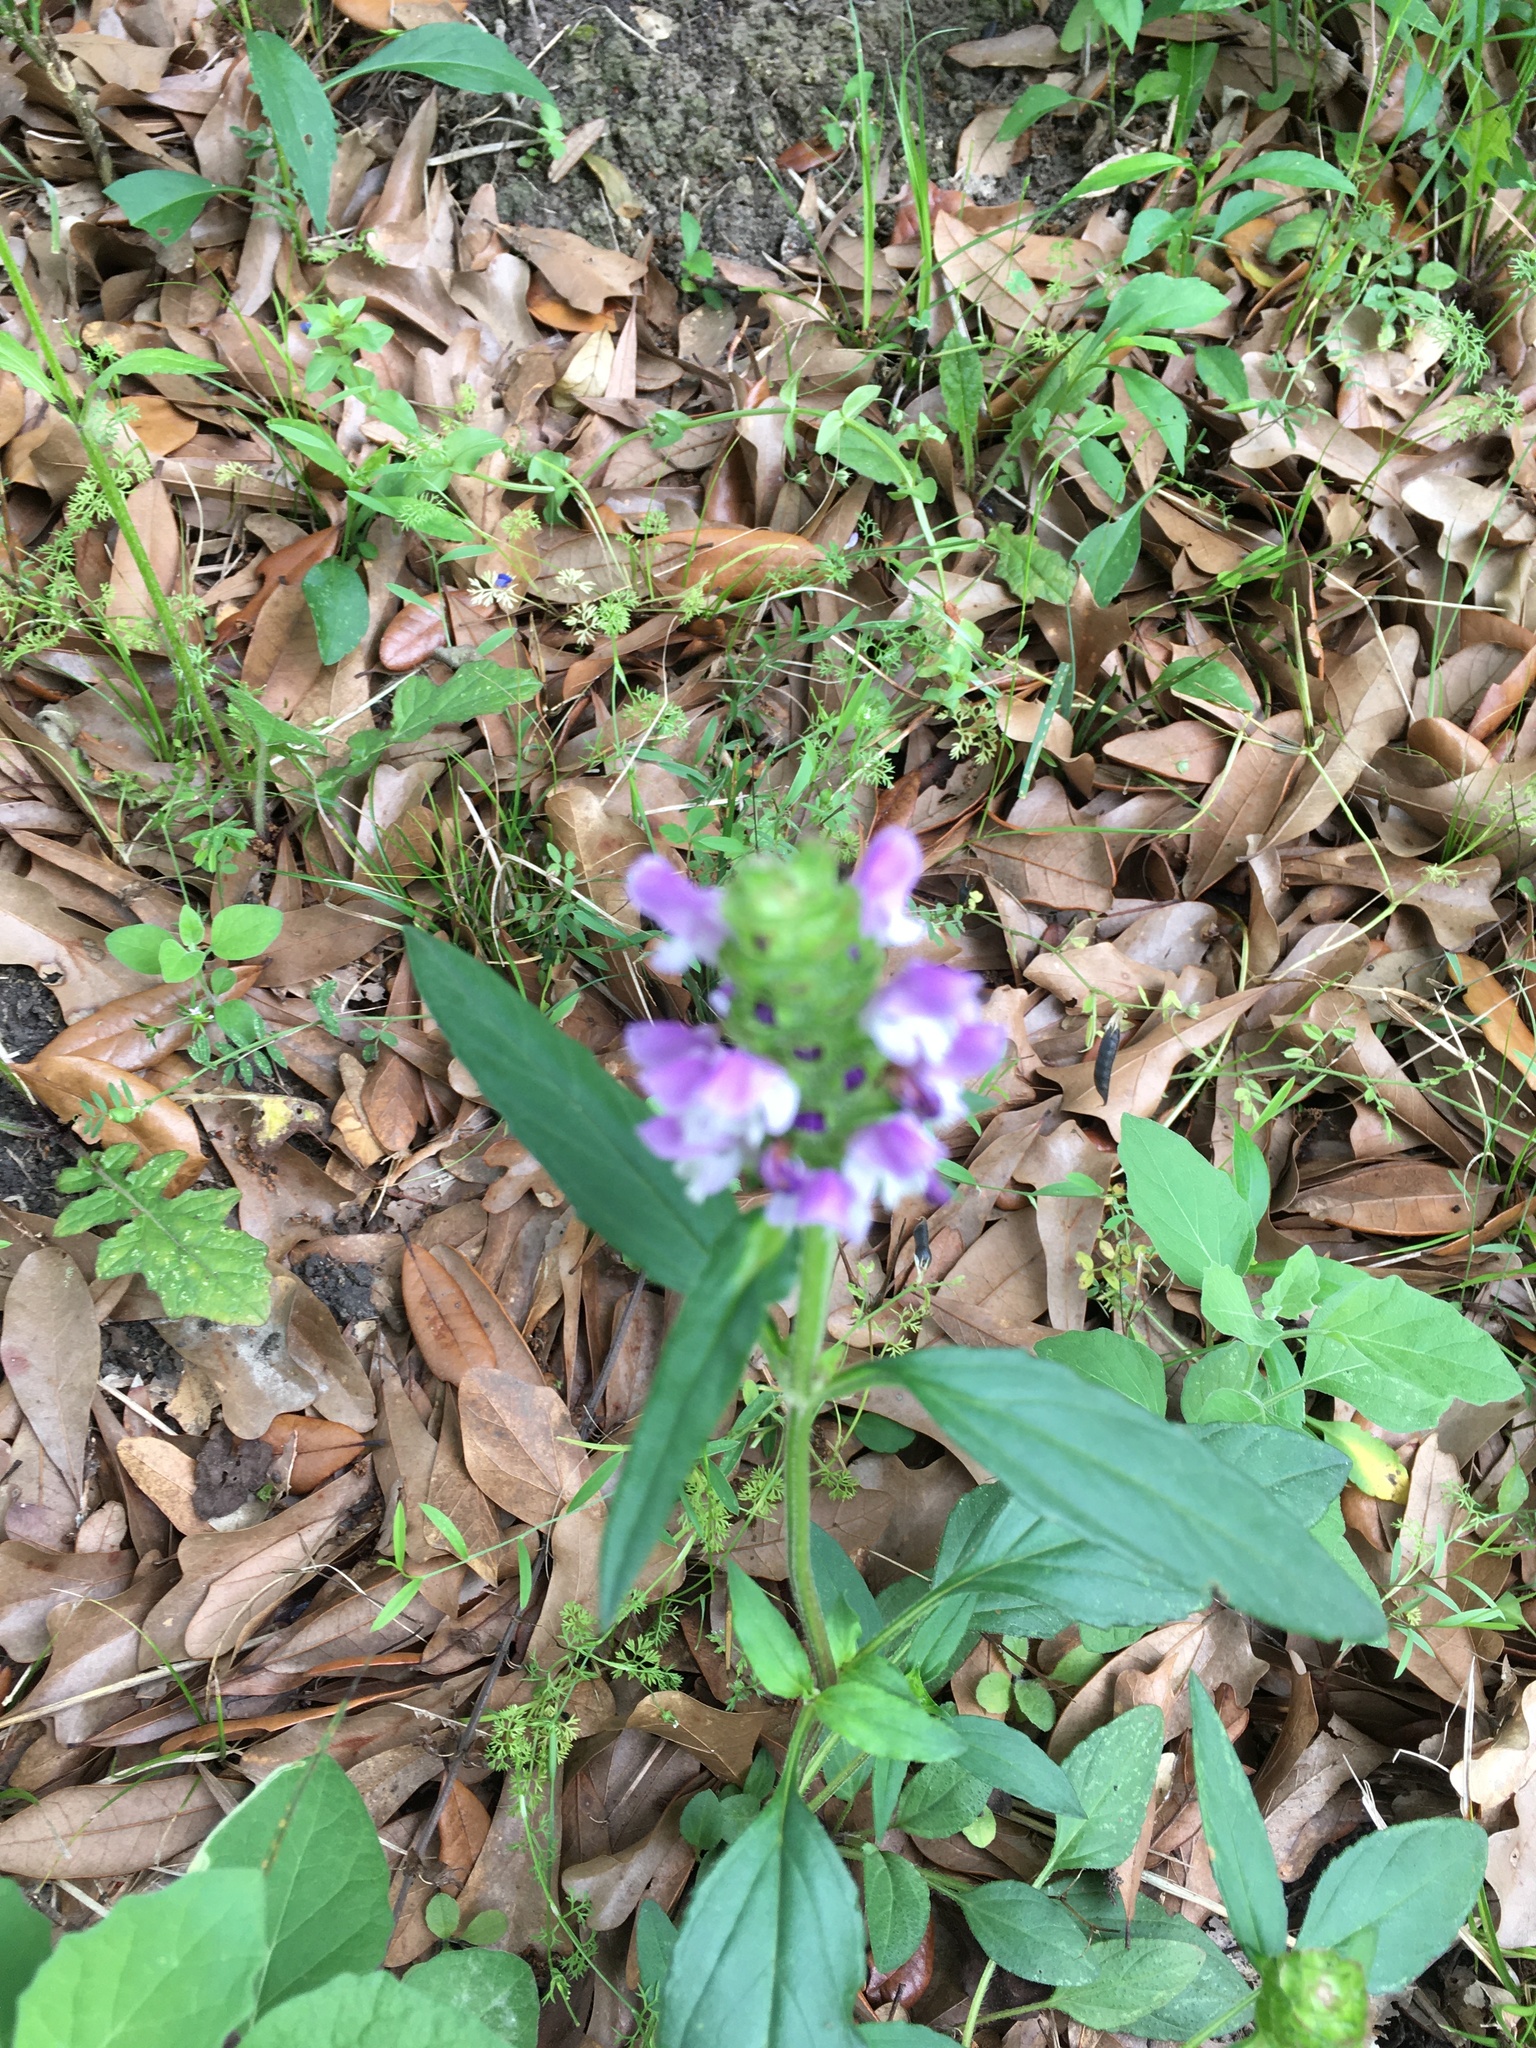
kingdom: Plantae
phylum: Tracheophyta
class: Magnoliopsida
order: Lamiales
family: Lamiaceae
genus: Prunella
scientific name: Prunella vulgaris
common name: Heal-all
